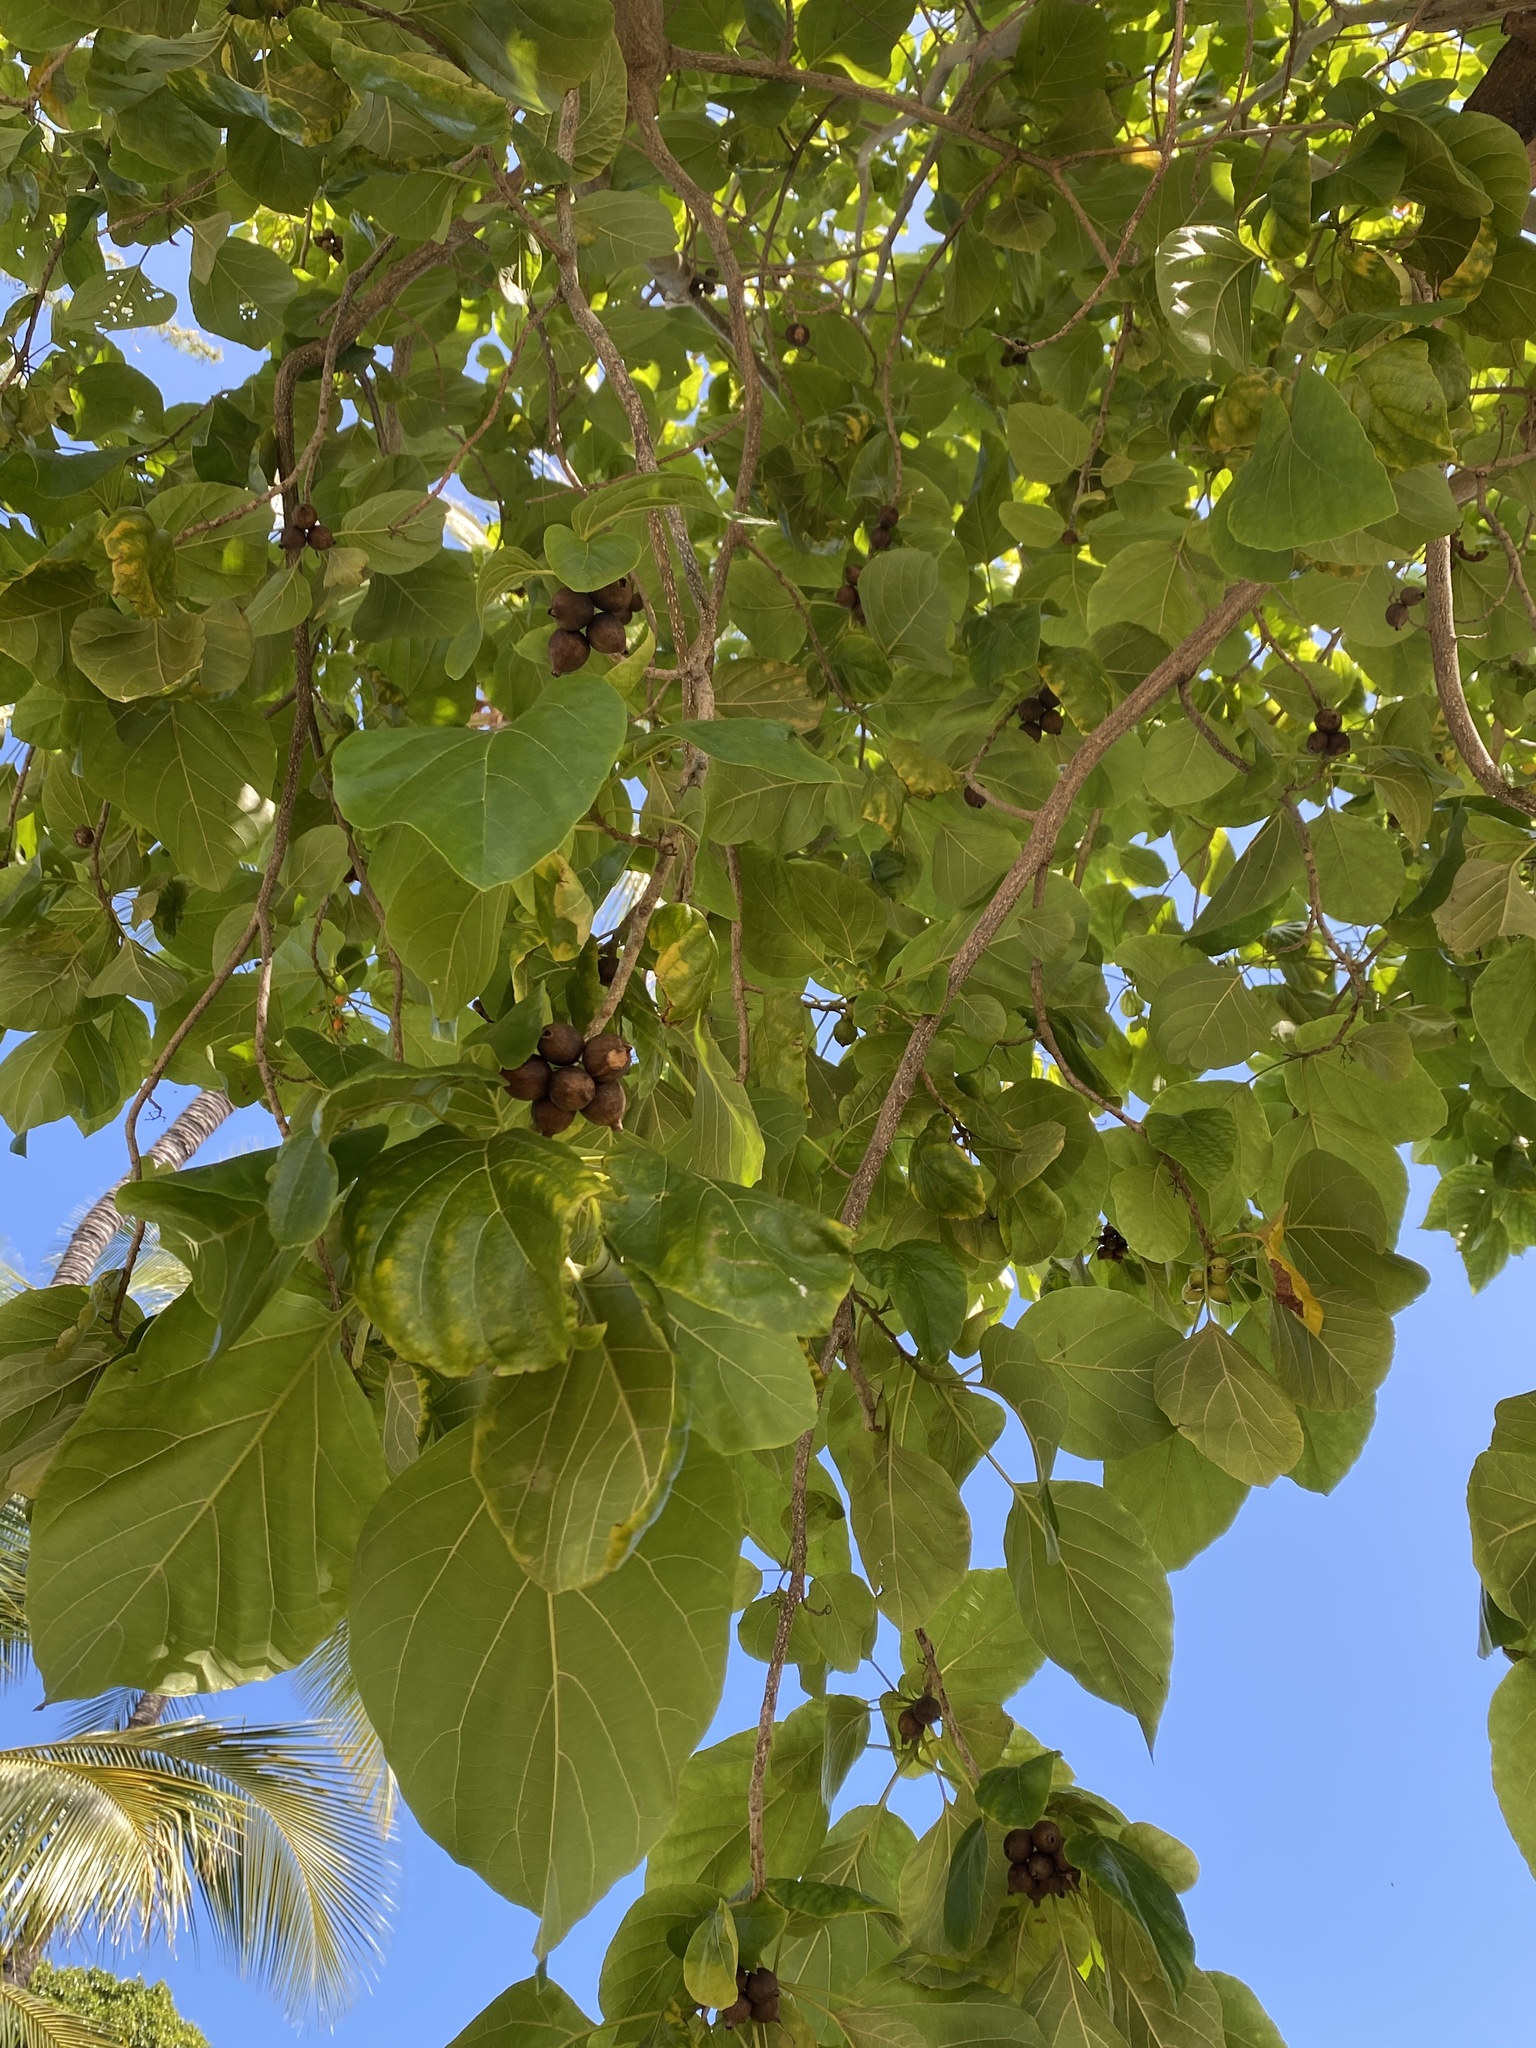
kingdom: Plantae
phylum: Tracheophyta
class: Magnoliopsida
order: Boraginales
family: Cordiaceae
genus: Cordia
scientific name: Cordia subcordata
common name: Mareer
